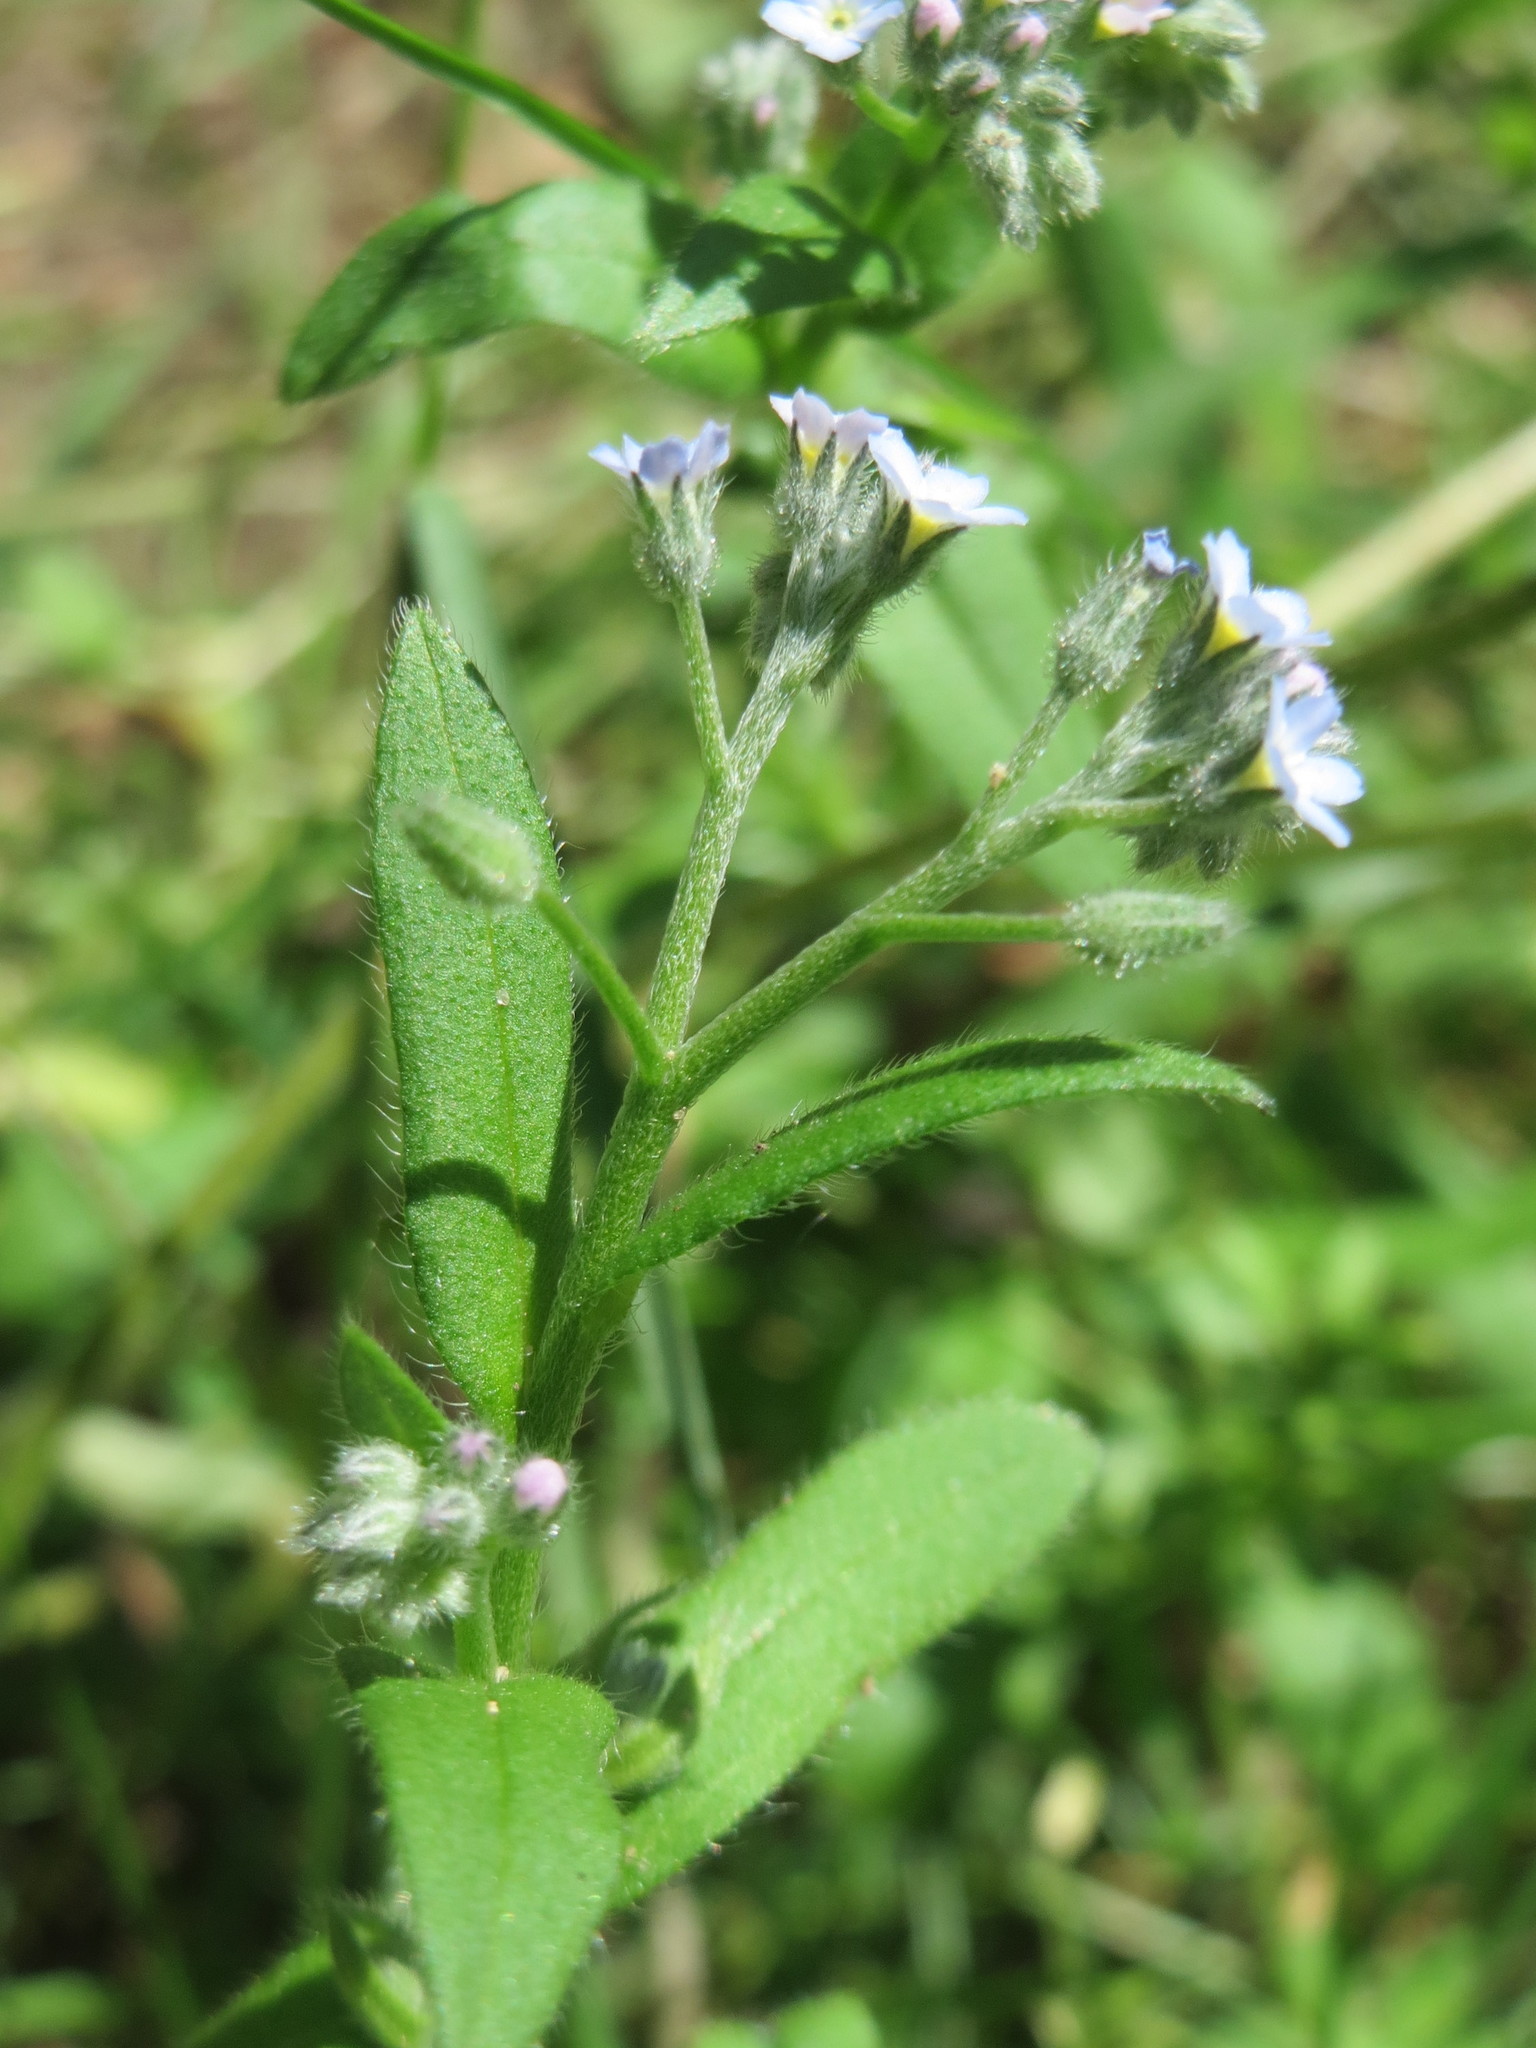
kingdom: Plantae
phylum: Tracheophyta
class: Magnoliopsida
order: Boraginales
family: Boraginaceae
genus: Myosotis
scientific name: Myosotis arvensis
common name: Field forget-me-not
